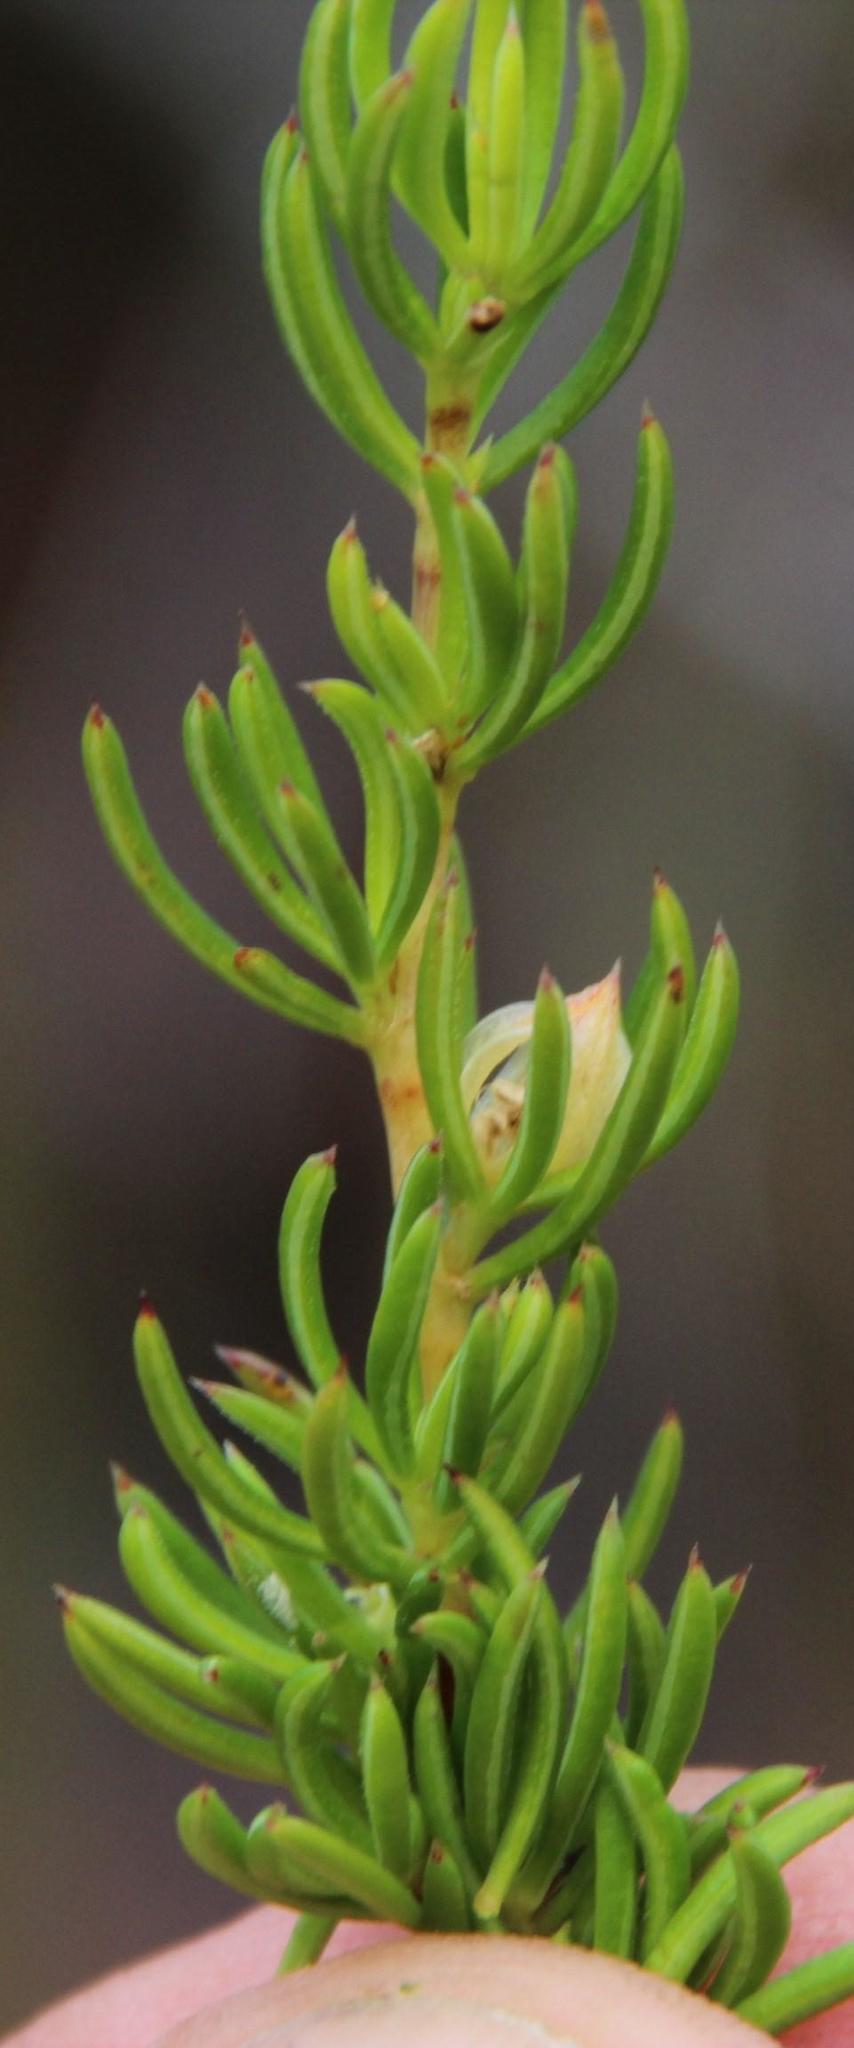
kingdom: Plantae
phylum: Tracheophyta
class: Magnoliopsida
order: Rosales
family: Rosaceae
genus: Cliffortia
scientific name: Cliffortia densa
